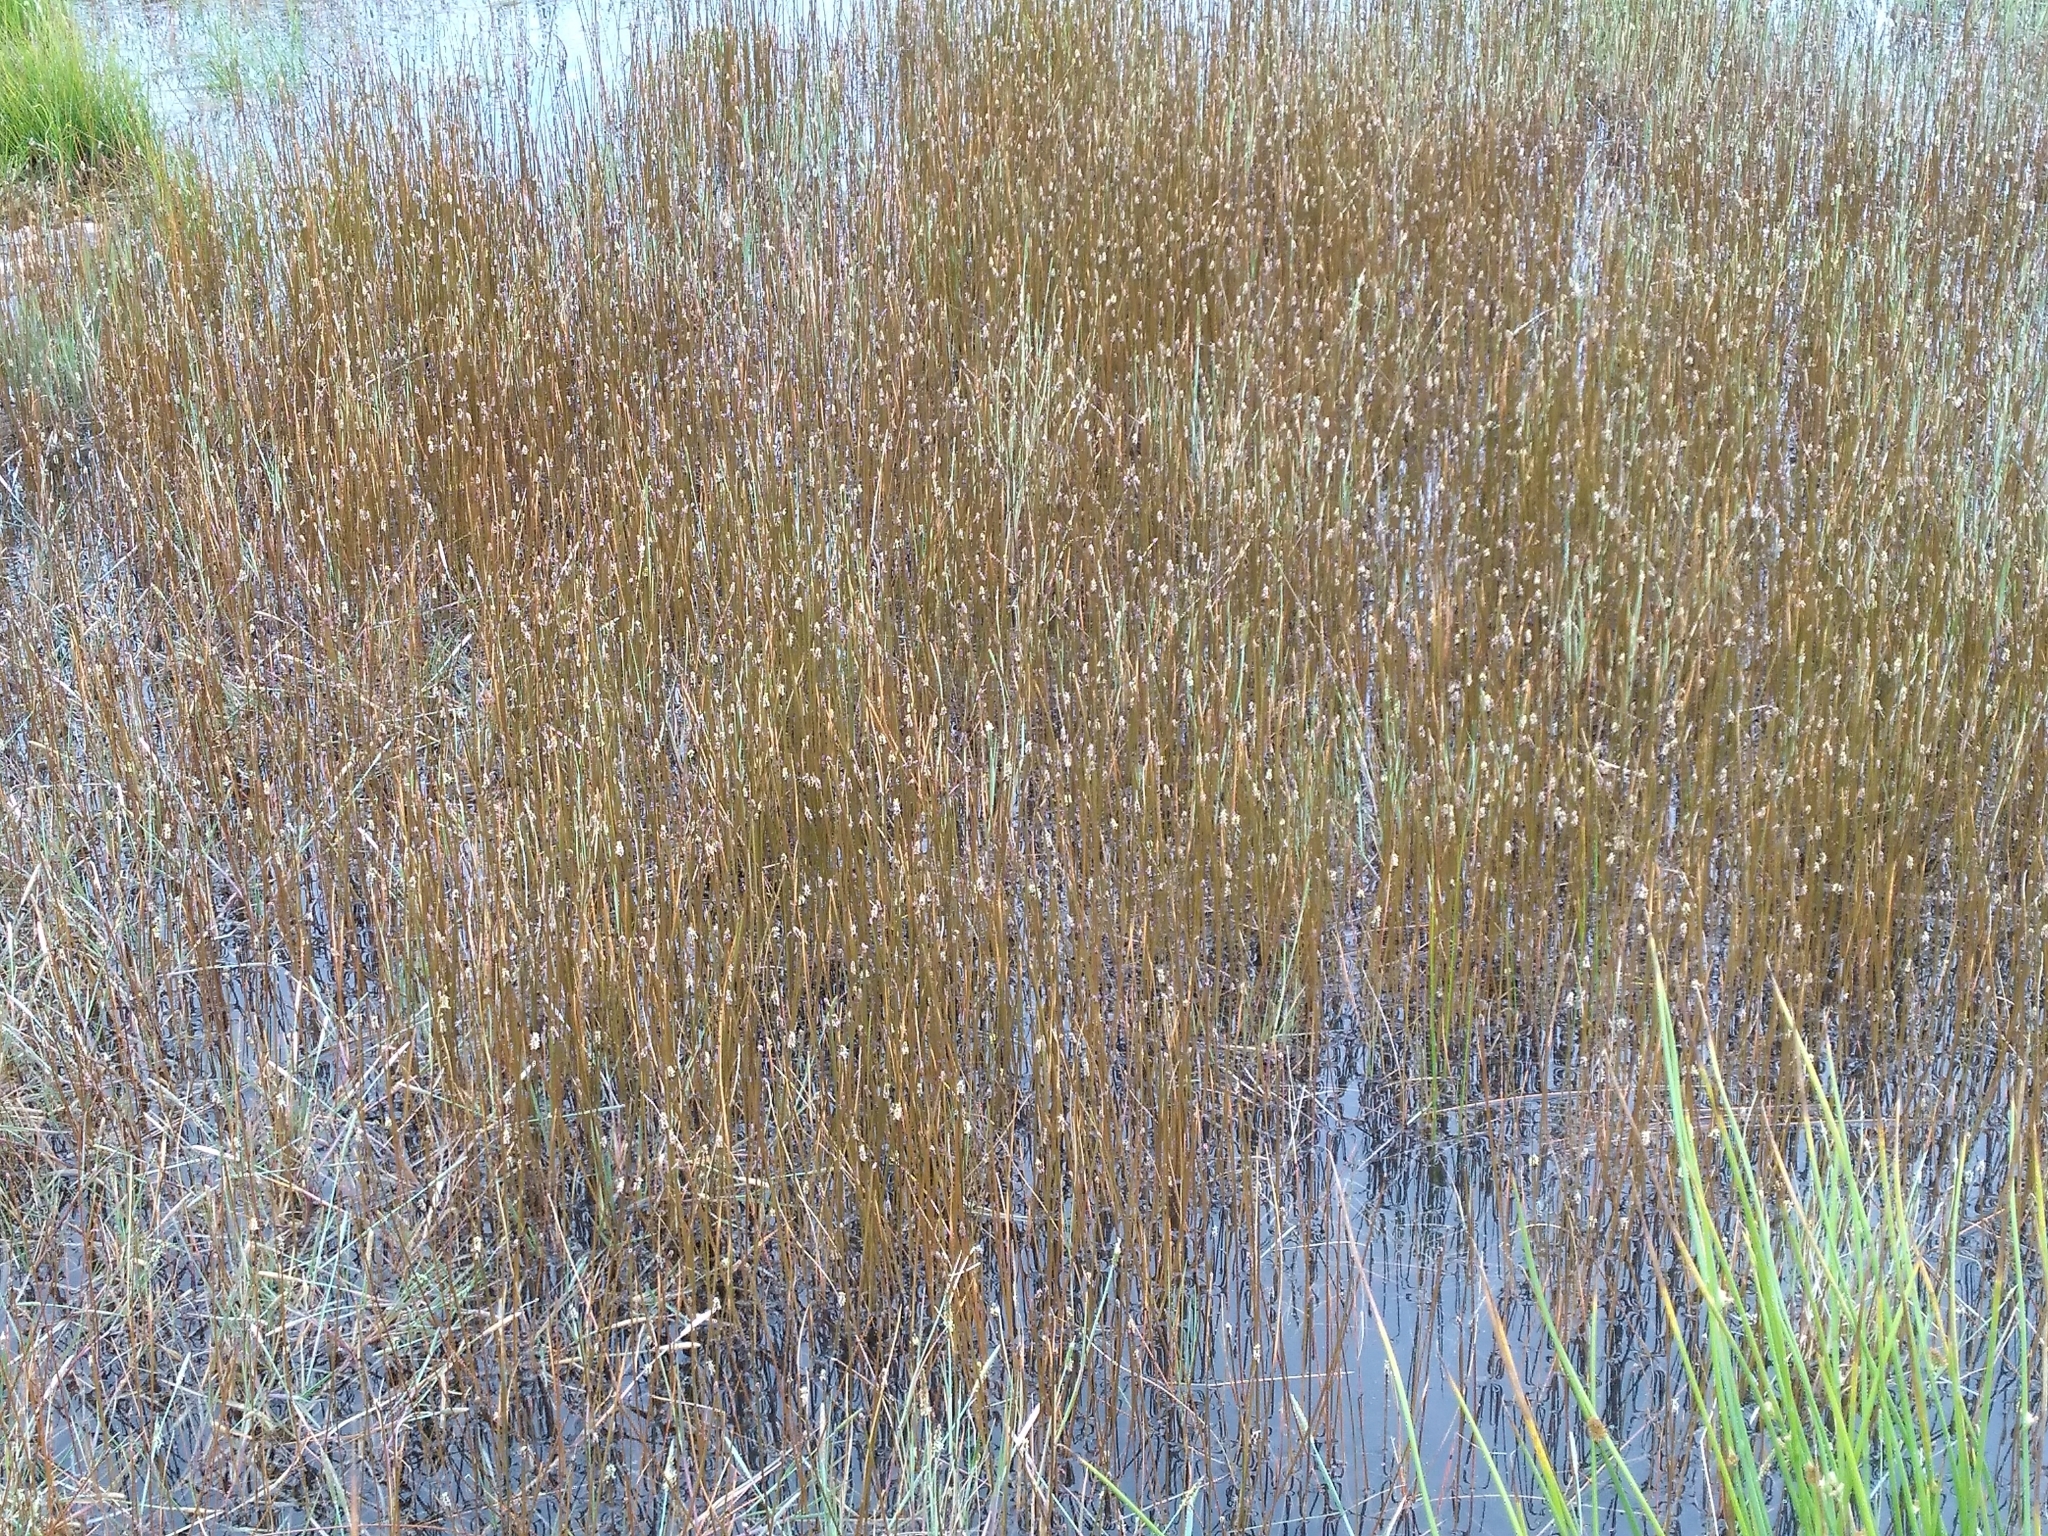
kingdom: Plantae
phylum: Tracheophyta
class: Liliopsida
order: Poales
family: Cyperaceae
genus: Eleocharis
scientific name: Eleocharis acuta
